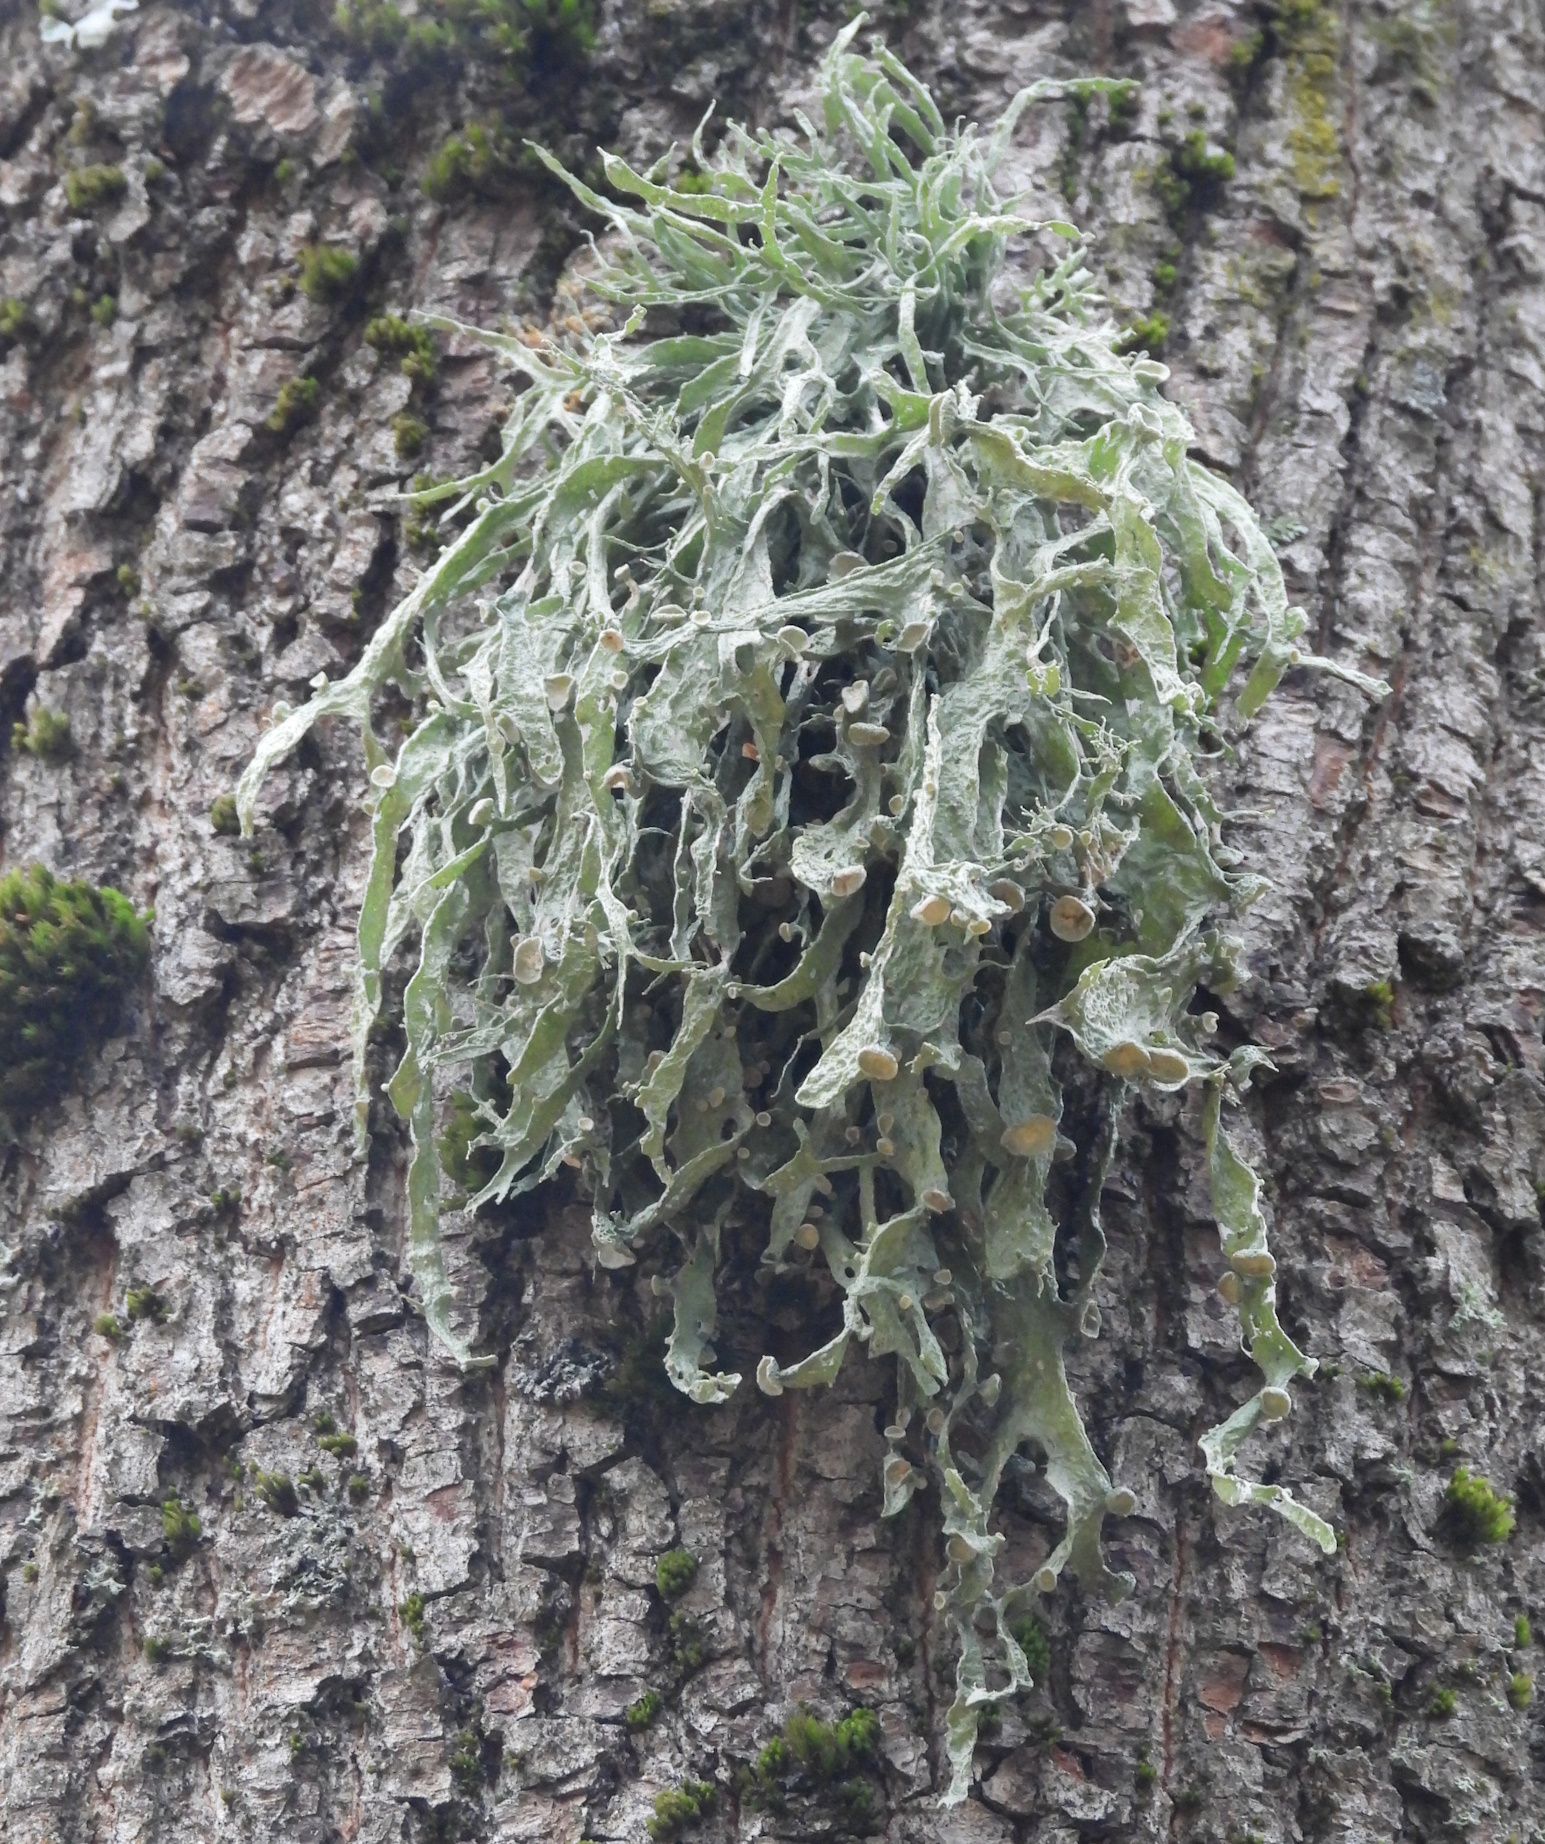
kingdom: Fungi
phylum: Ascomycota
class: Lecanoromycetes
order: Lecanorales
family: Ramalinaceae
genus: Ramalina
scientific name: Ramalina fraxinea
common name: Cartilage lichen
